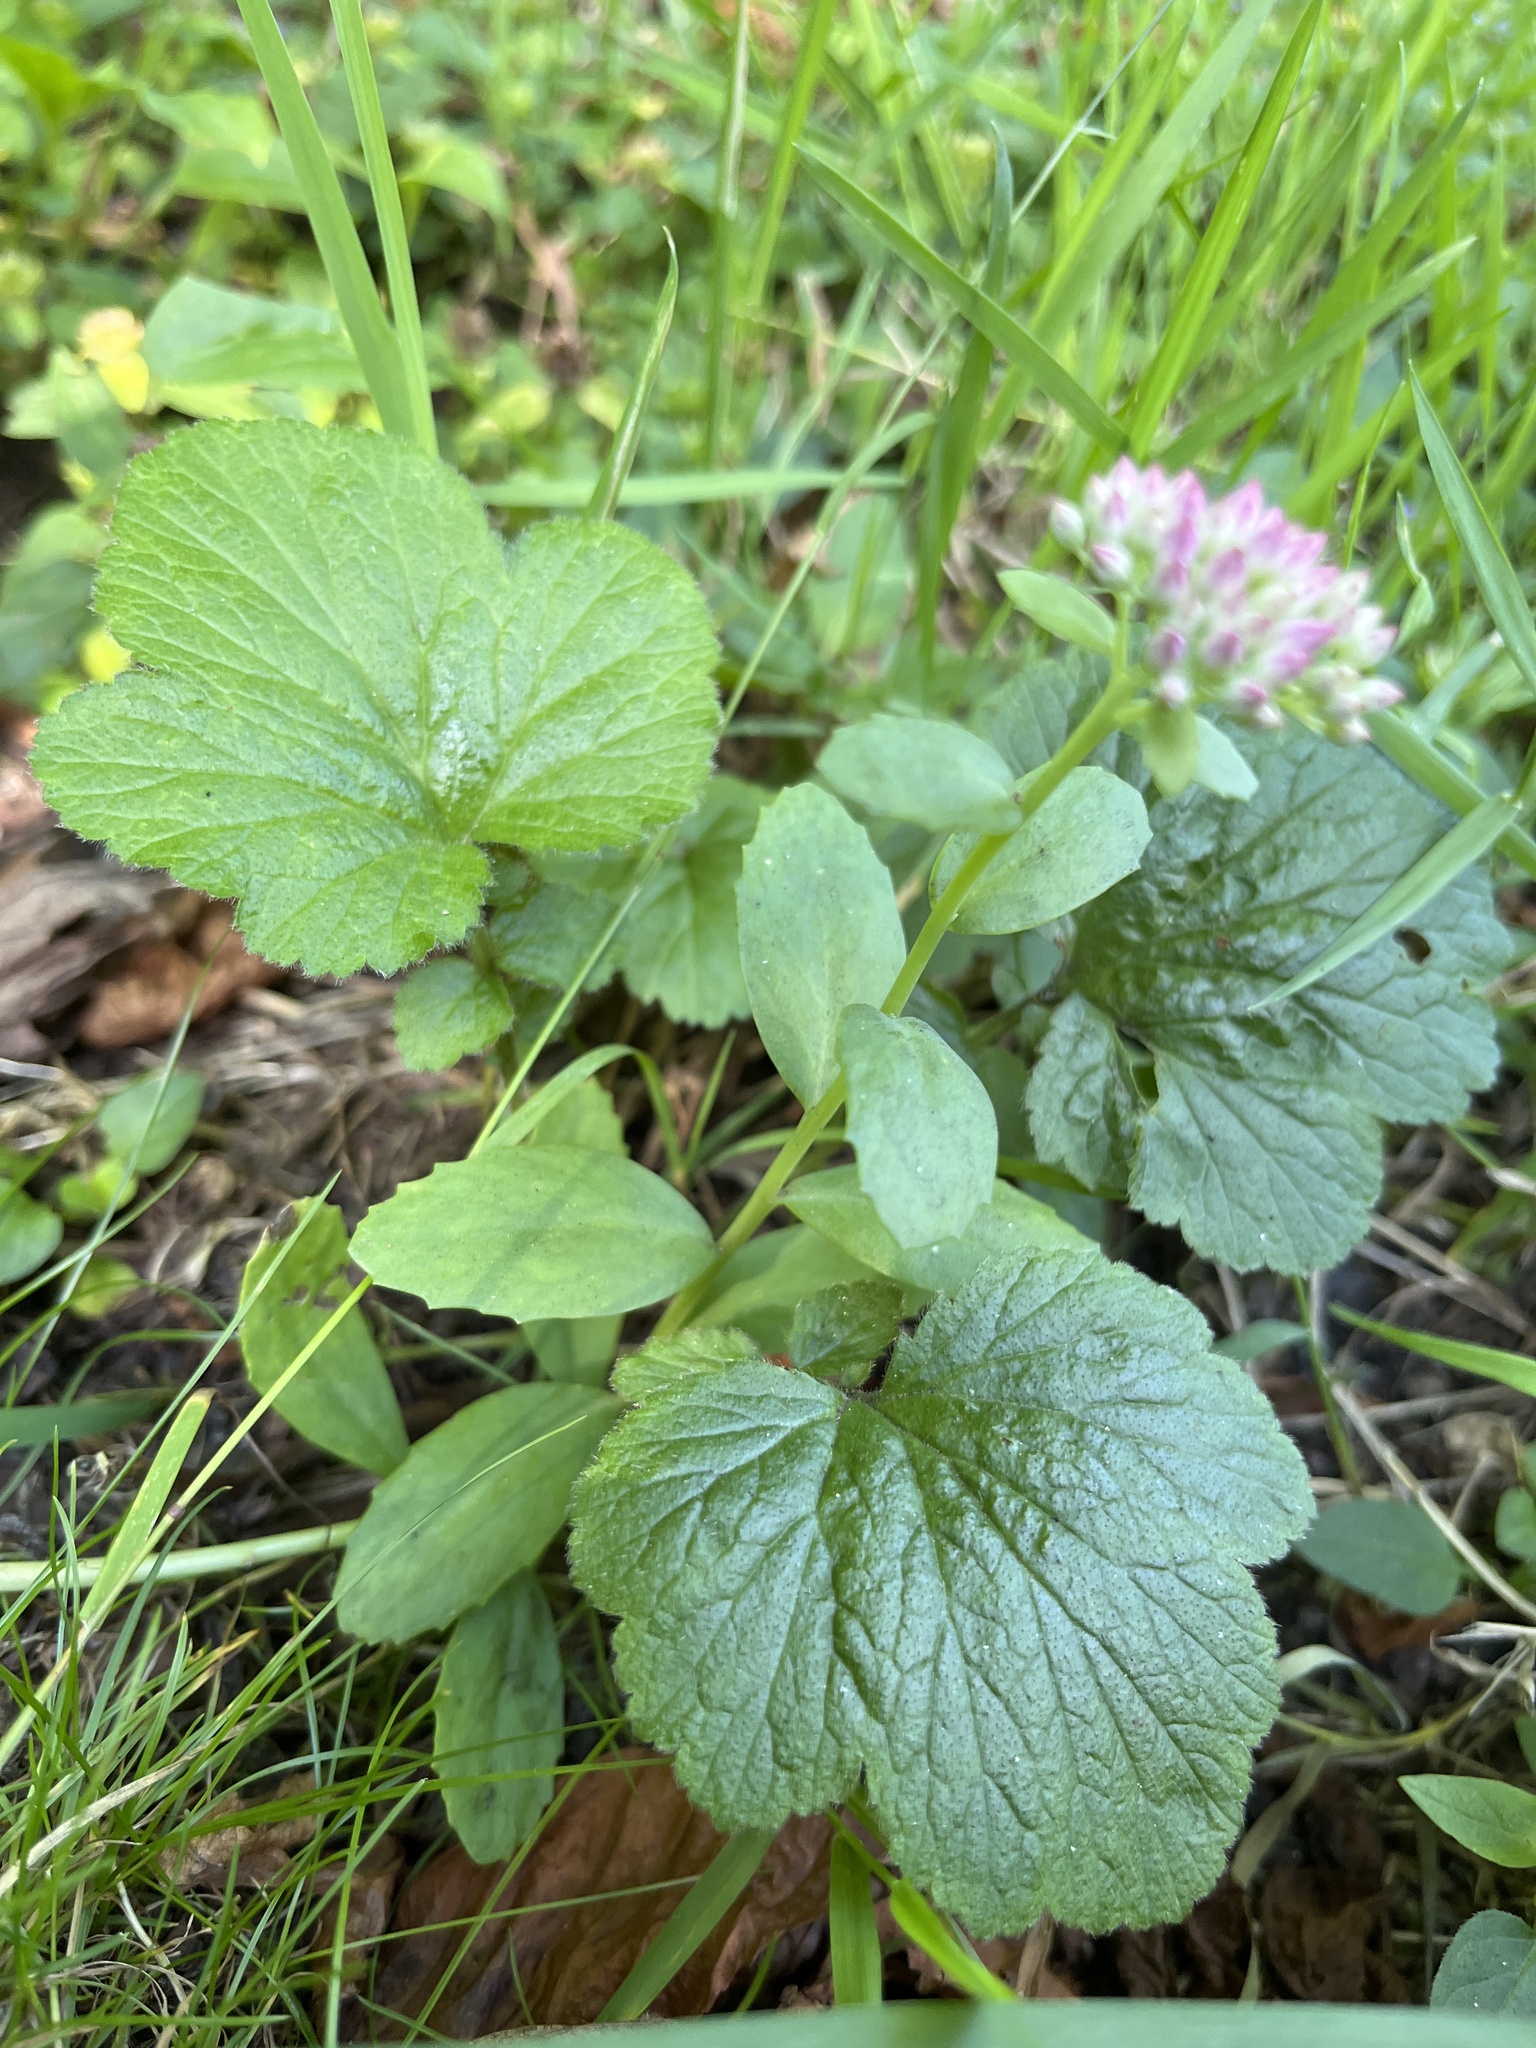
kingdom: Plantae
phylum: Tracheophyta
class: Magnoliopsida
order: Saxifragales
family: Crassulaceae
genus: Hylotelephium
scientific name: Hylotelephium telephium
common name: Live-forever
